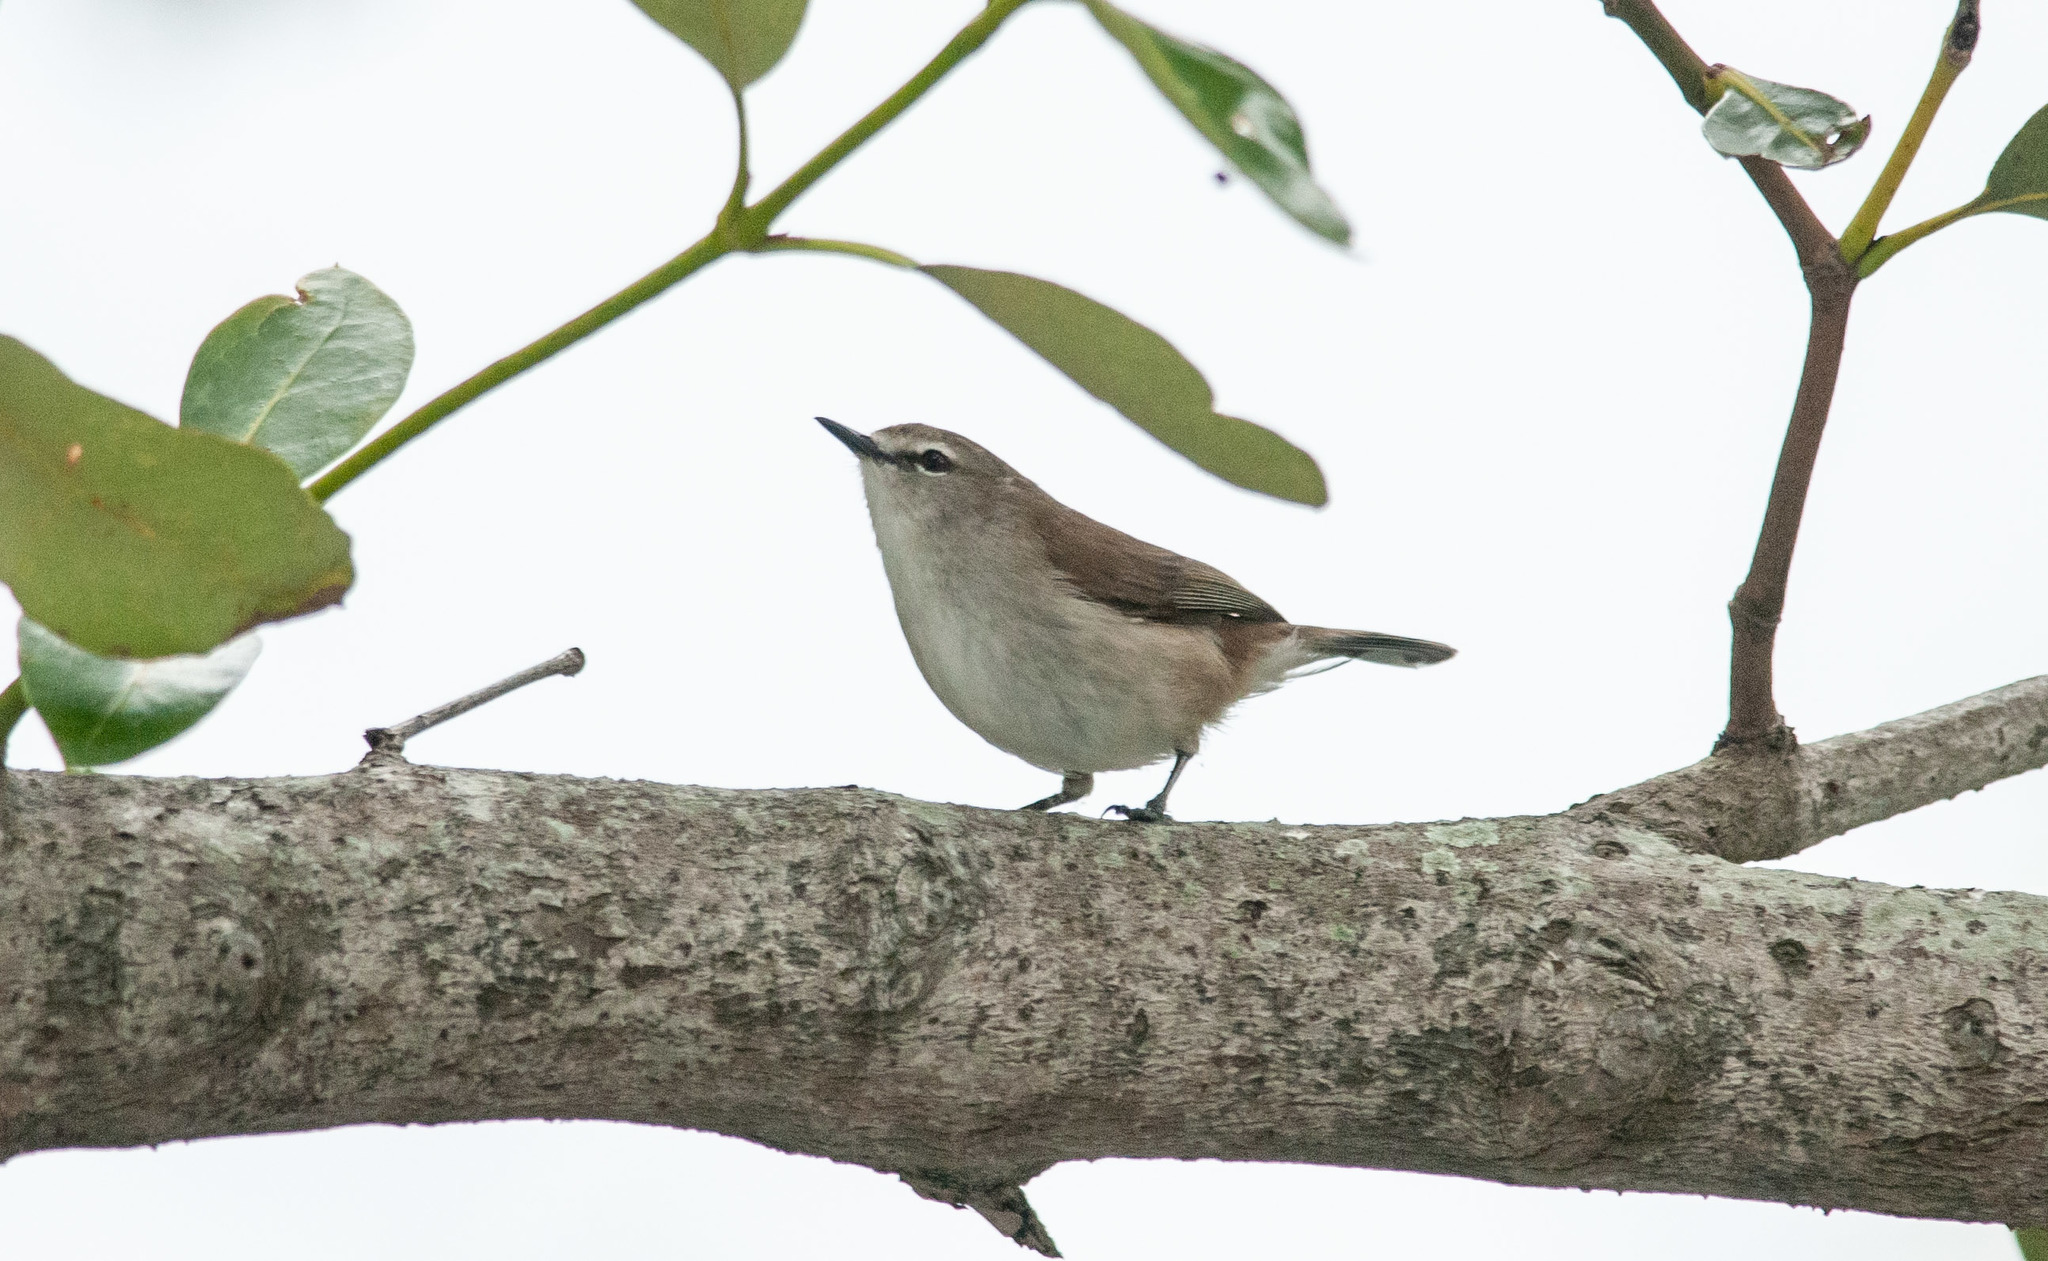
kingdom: Animalia
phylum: Chordata
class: Aves
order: Passeriformes
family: Acanthizidae
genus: Gerygone
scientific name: Gerygone levigaster
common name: Mangrove gerygone
